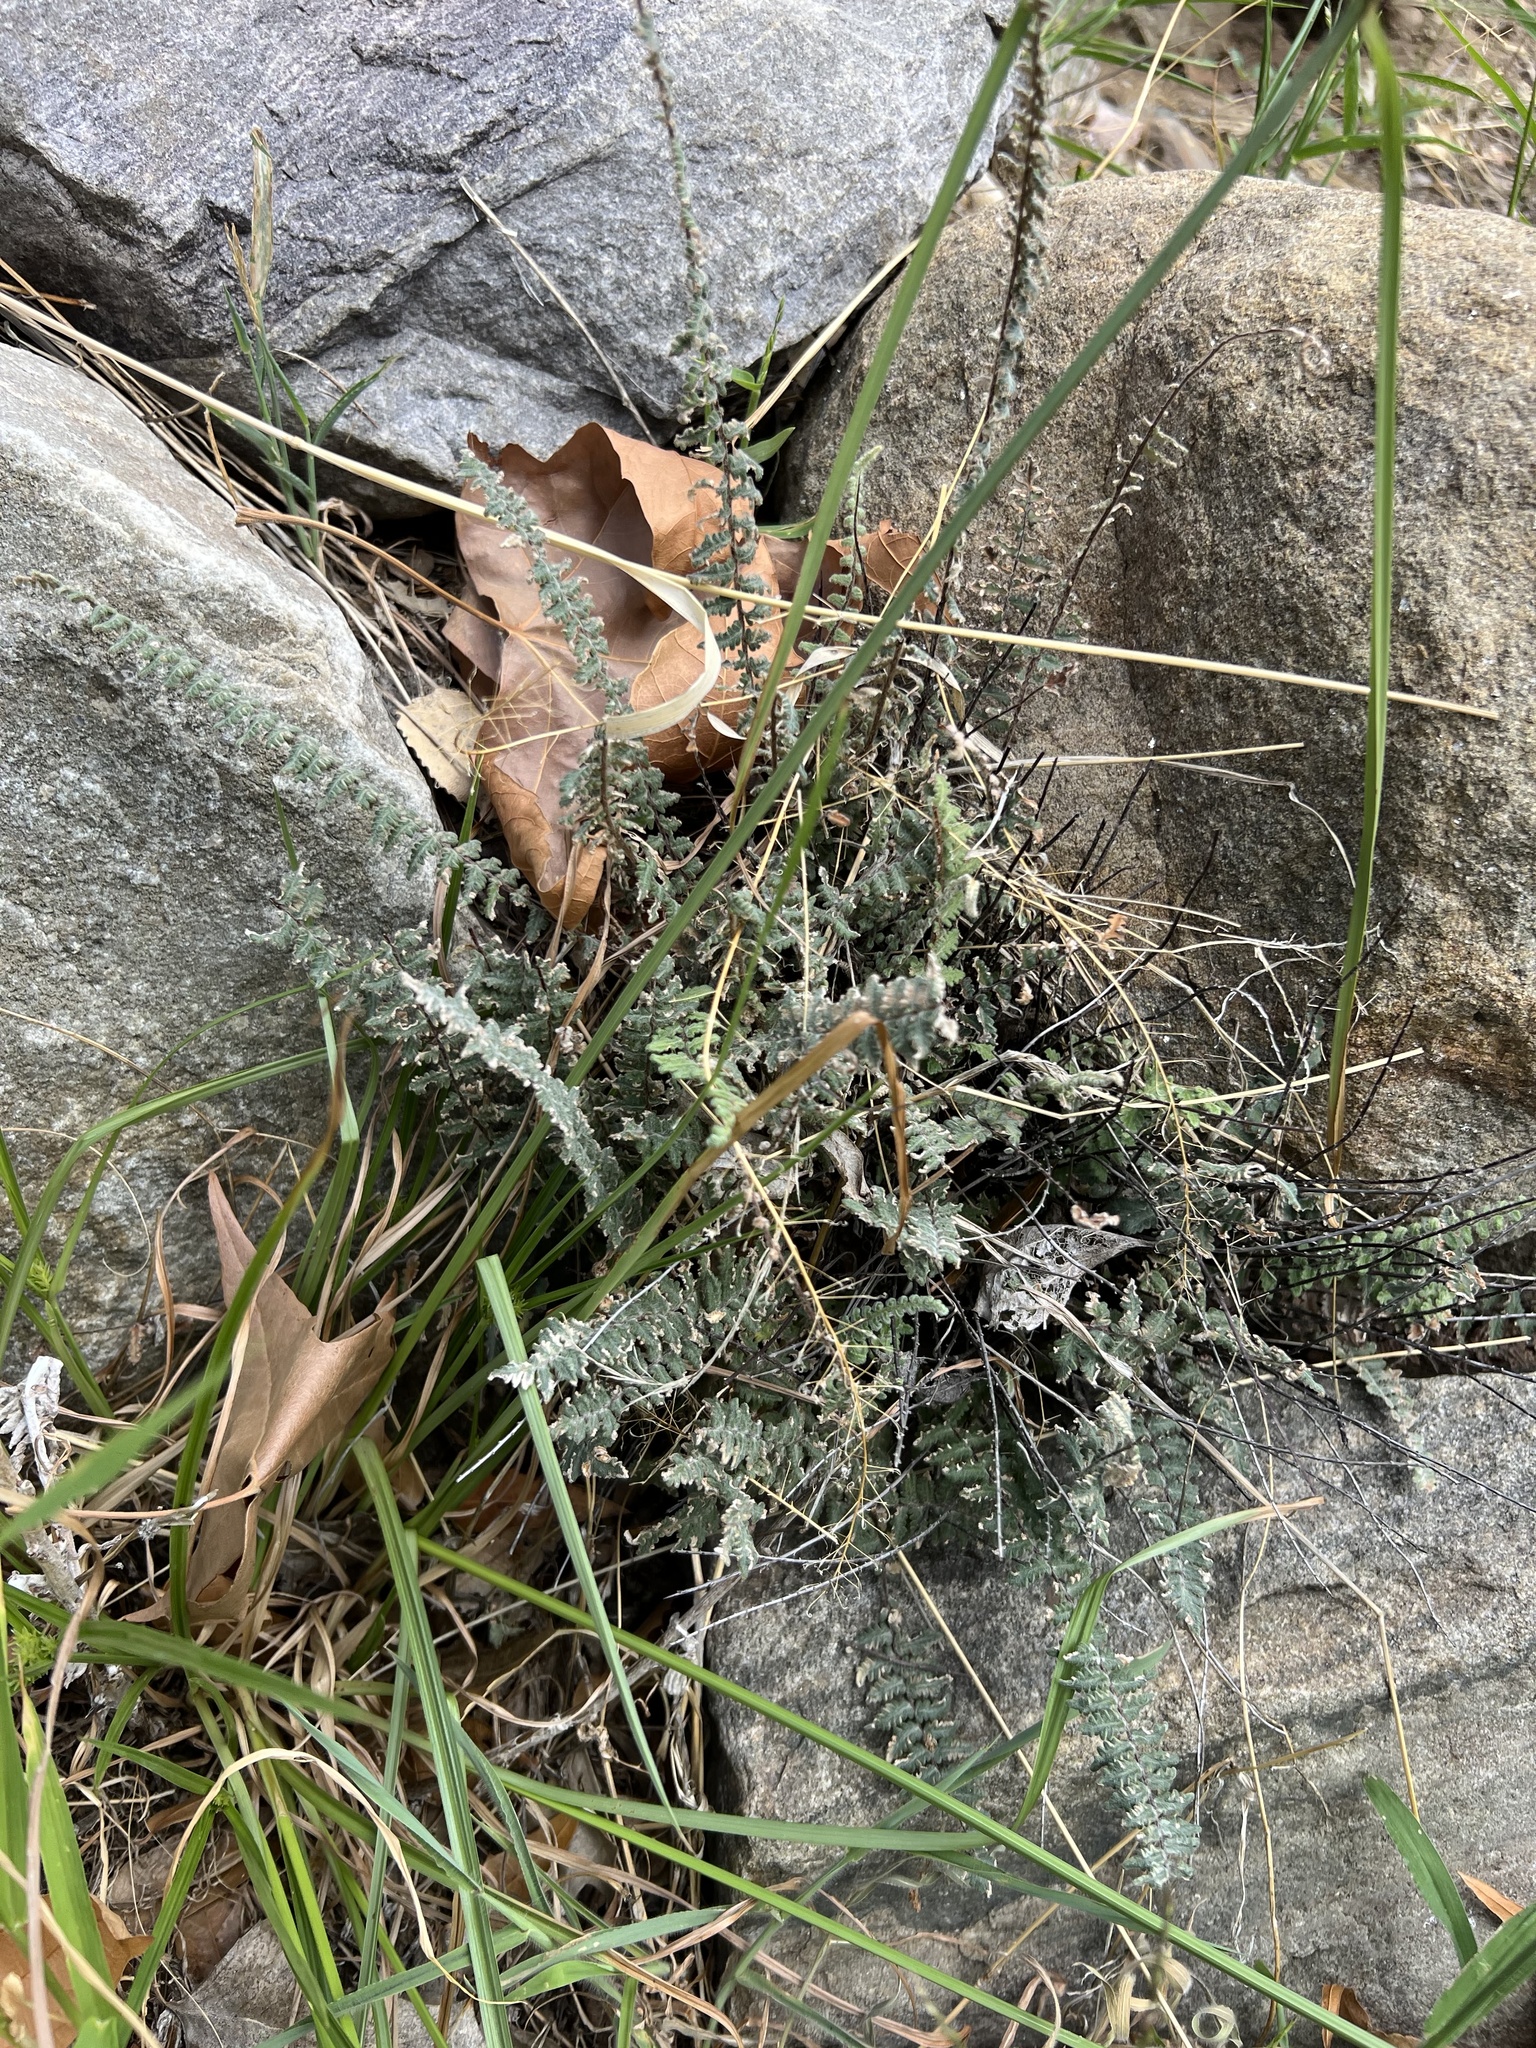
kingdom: Plantae
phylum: Tracheophyta
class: Polypodiopsida
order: Polypodiales
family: Pteridaceae
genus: Myriopteris
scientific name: Myriopteris aurea
